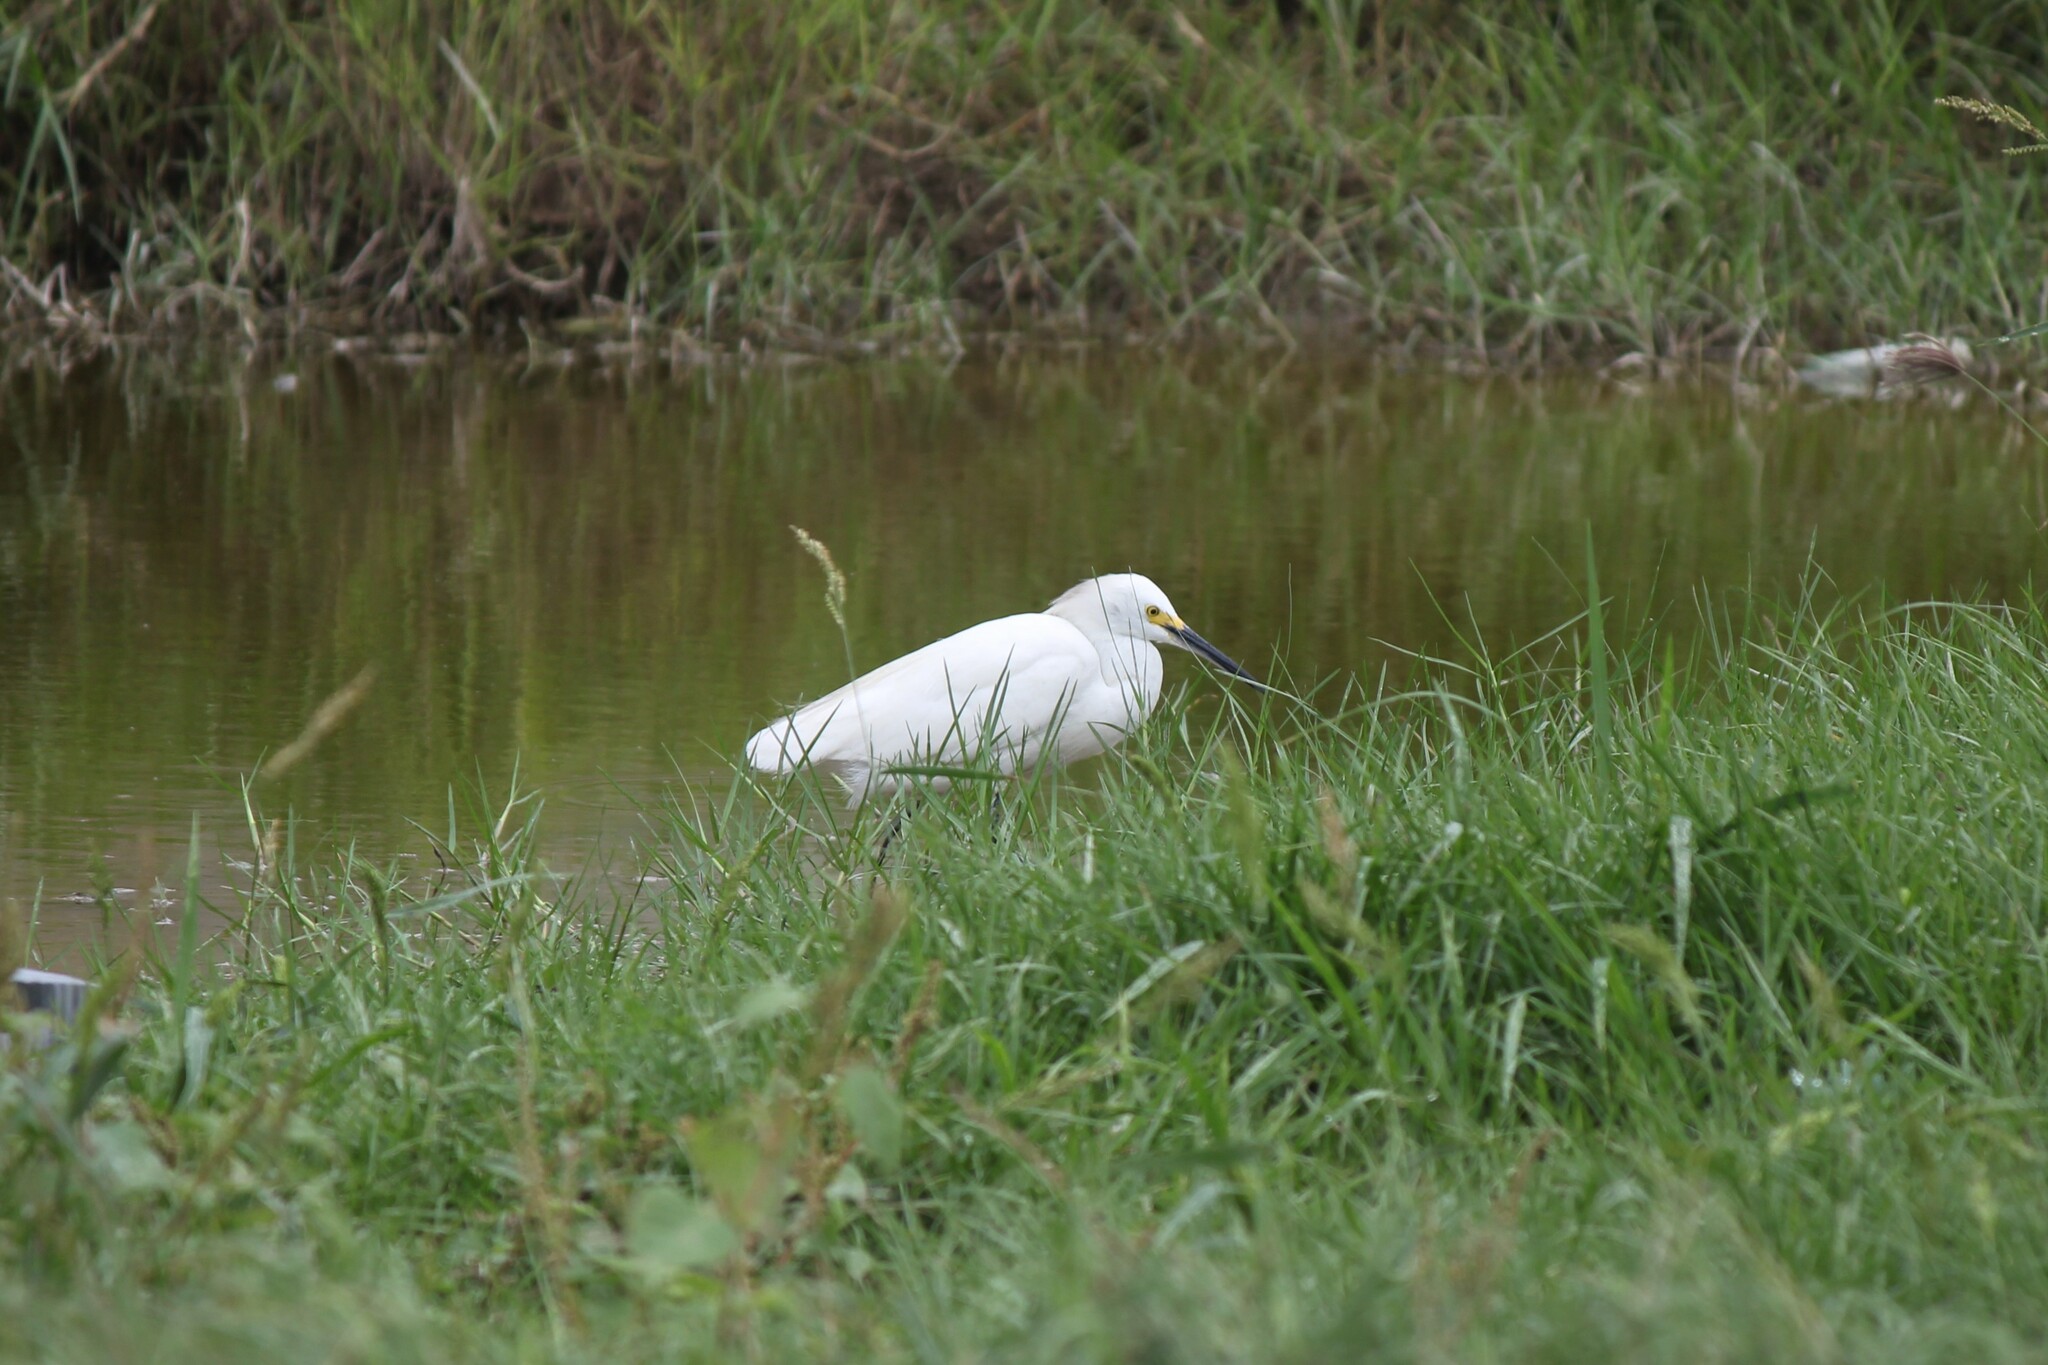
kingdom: Animalia
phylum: Chordata
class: Aves
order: Pelecaniformes
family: Ardeidae
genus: Egretta
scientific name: Egretta thula
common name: Snowy egret
